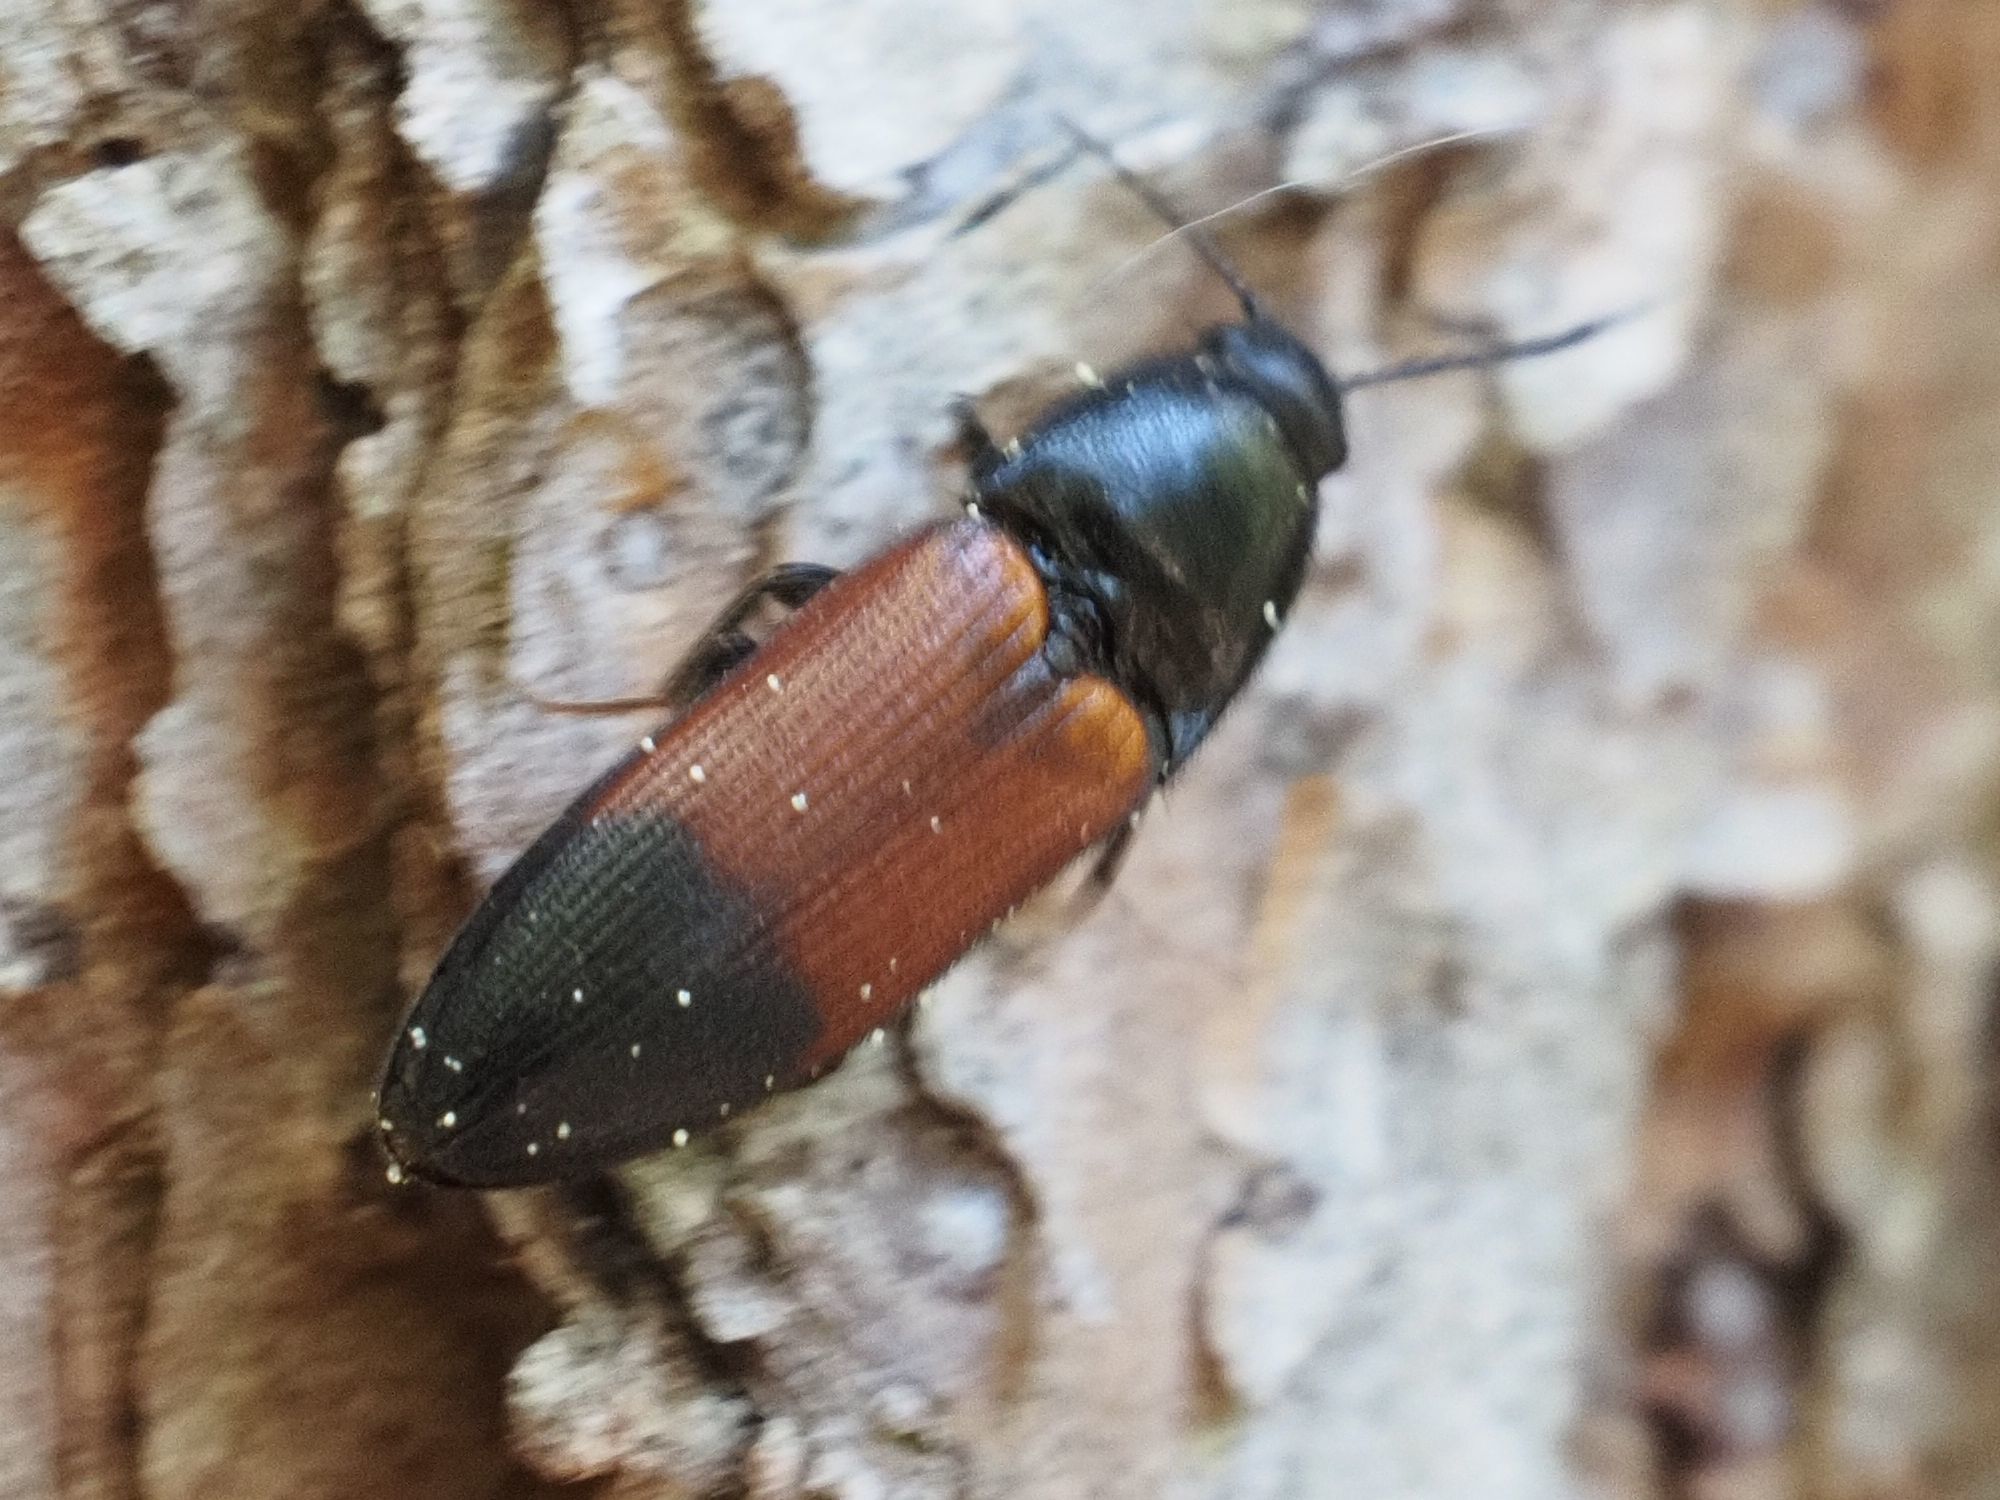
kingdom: Animalia
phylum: Arthropoda
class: Insecta
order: Coleoptera
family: Elateridae
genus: Ampedus
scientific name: Ampedus balteatus
